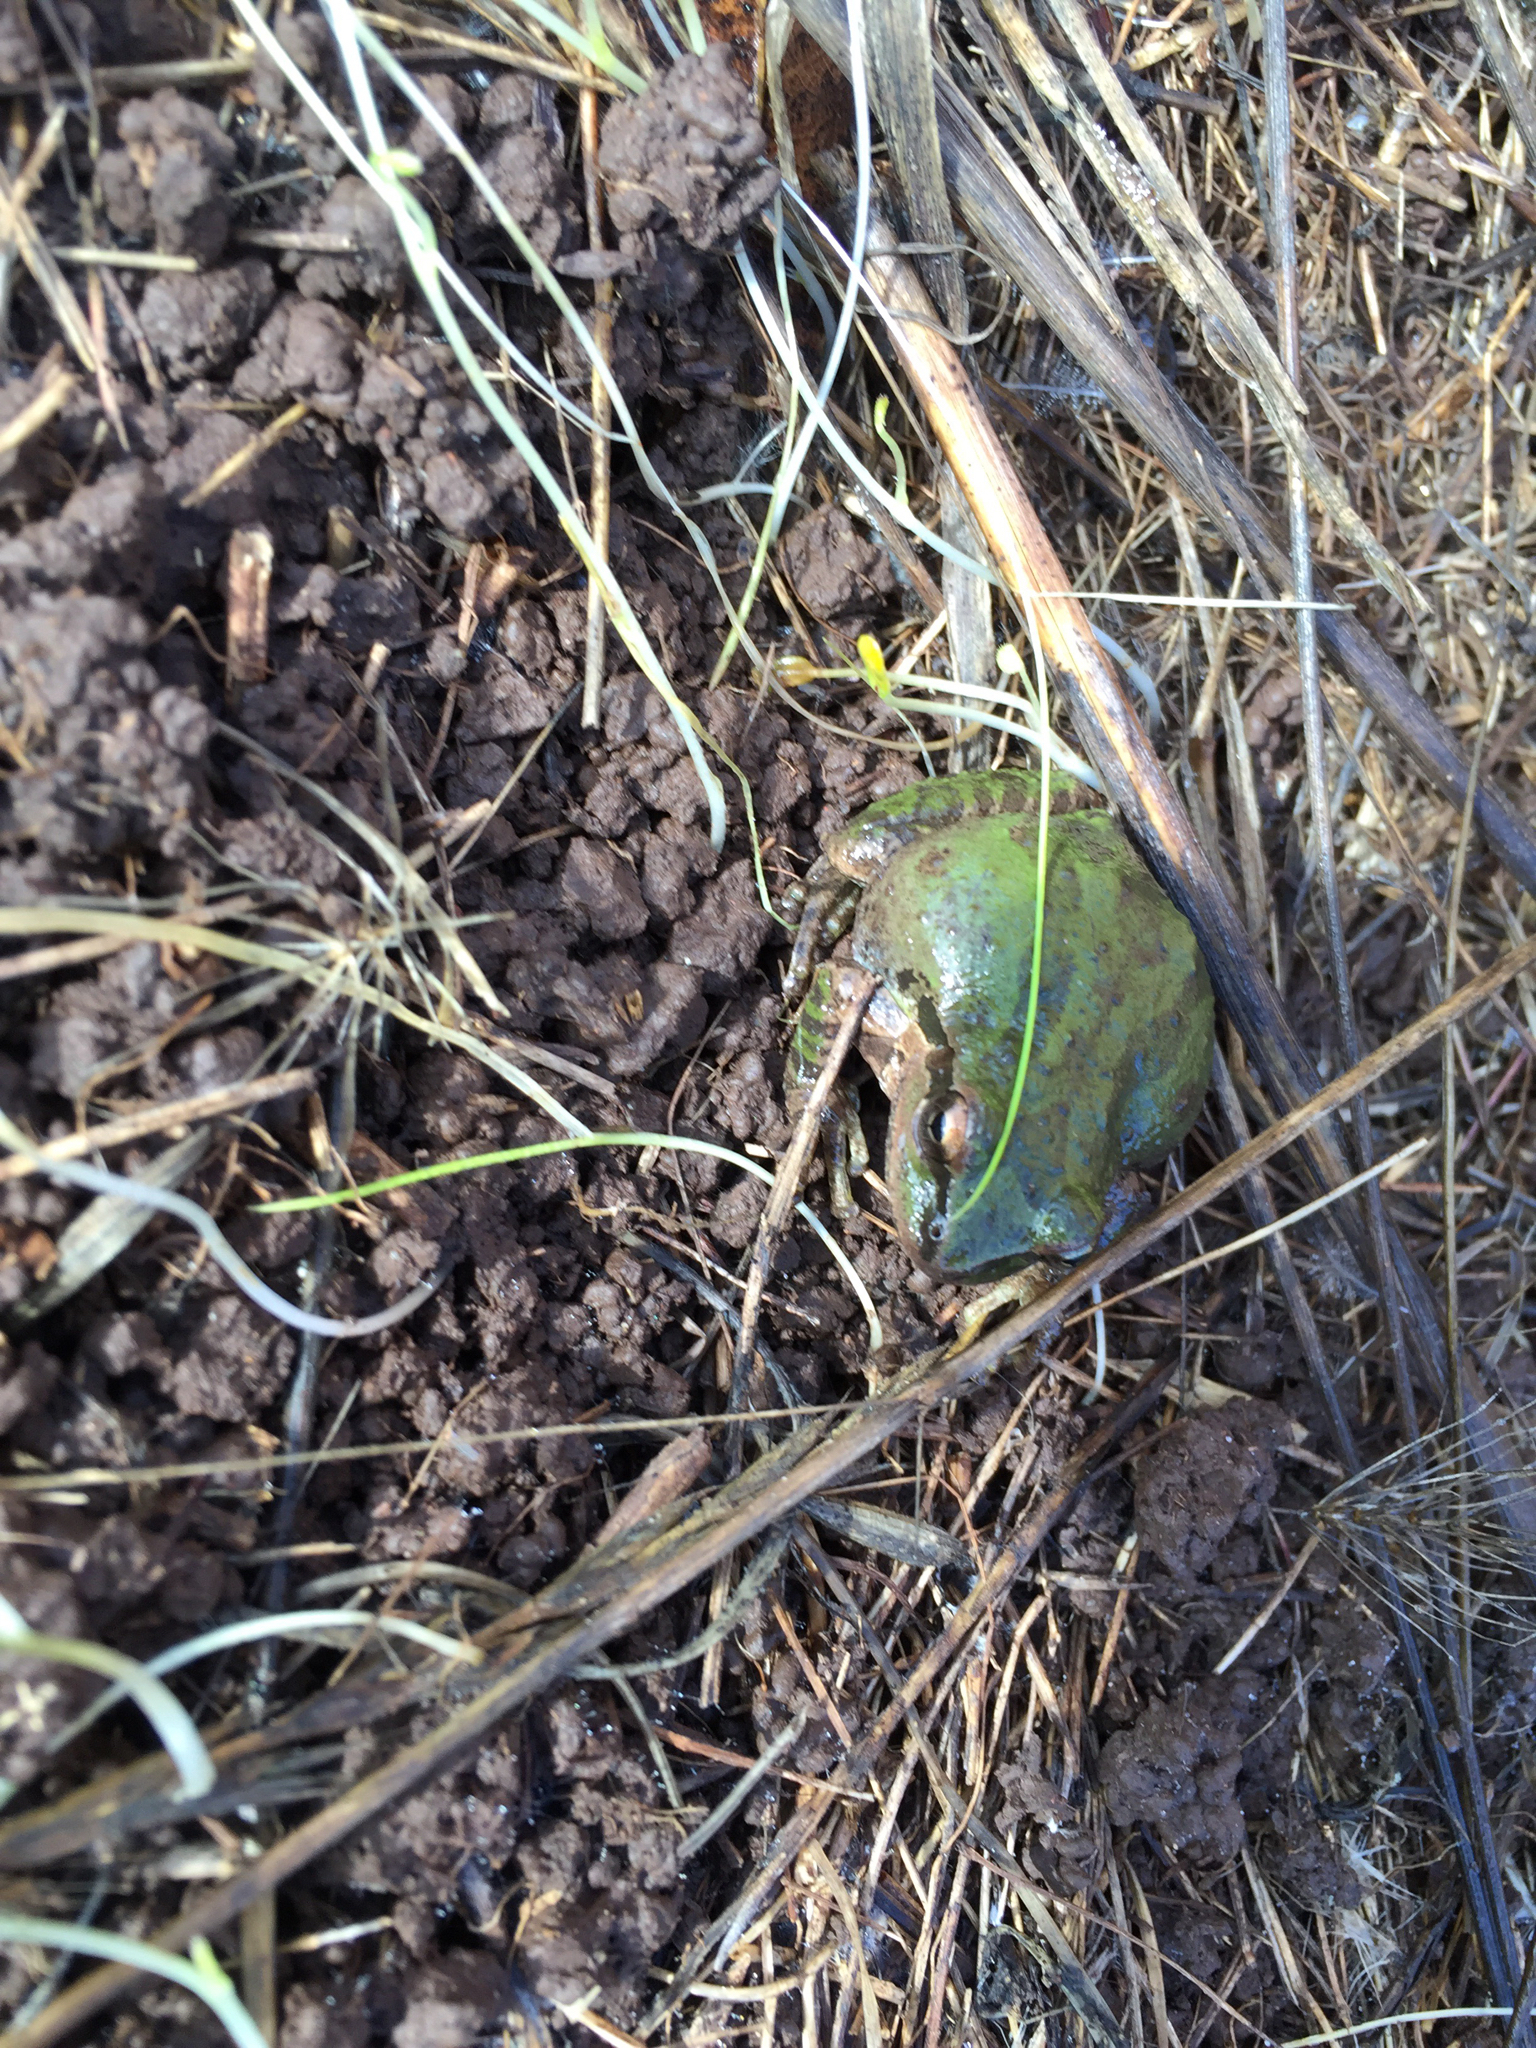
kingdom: Animalia
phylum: Chordata
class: Amphibia
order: Anura
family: Hylidae
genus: Pseudacris
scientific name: Pseudacris regilla
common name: Pacific chorus frog
